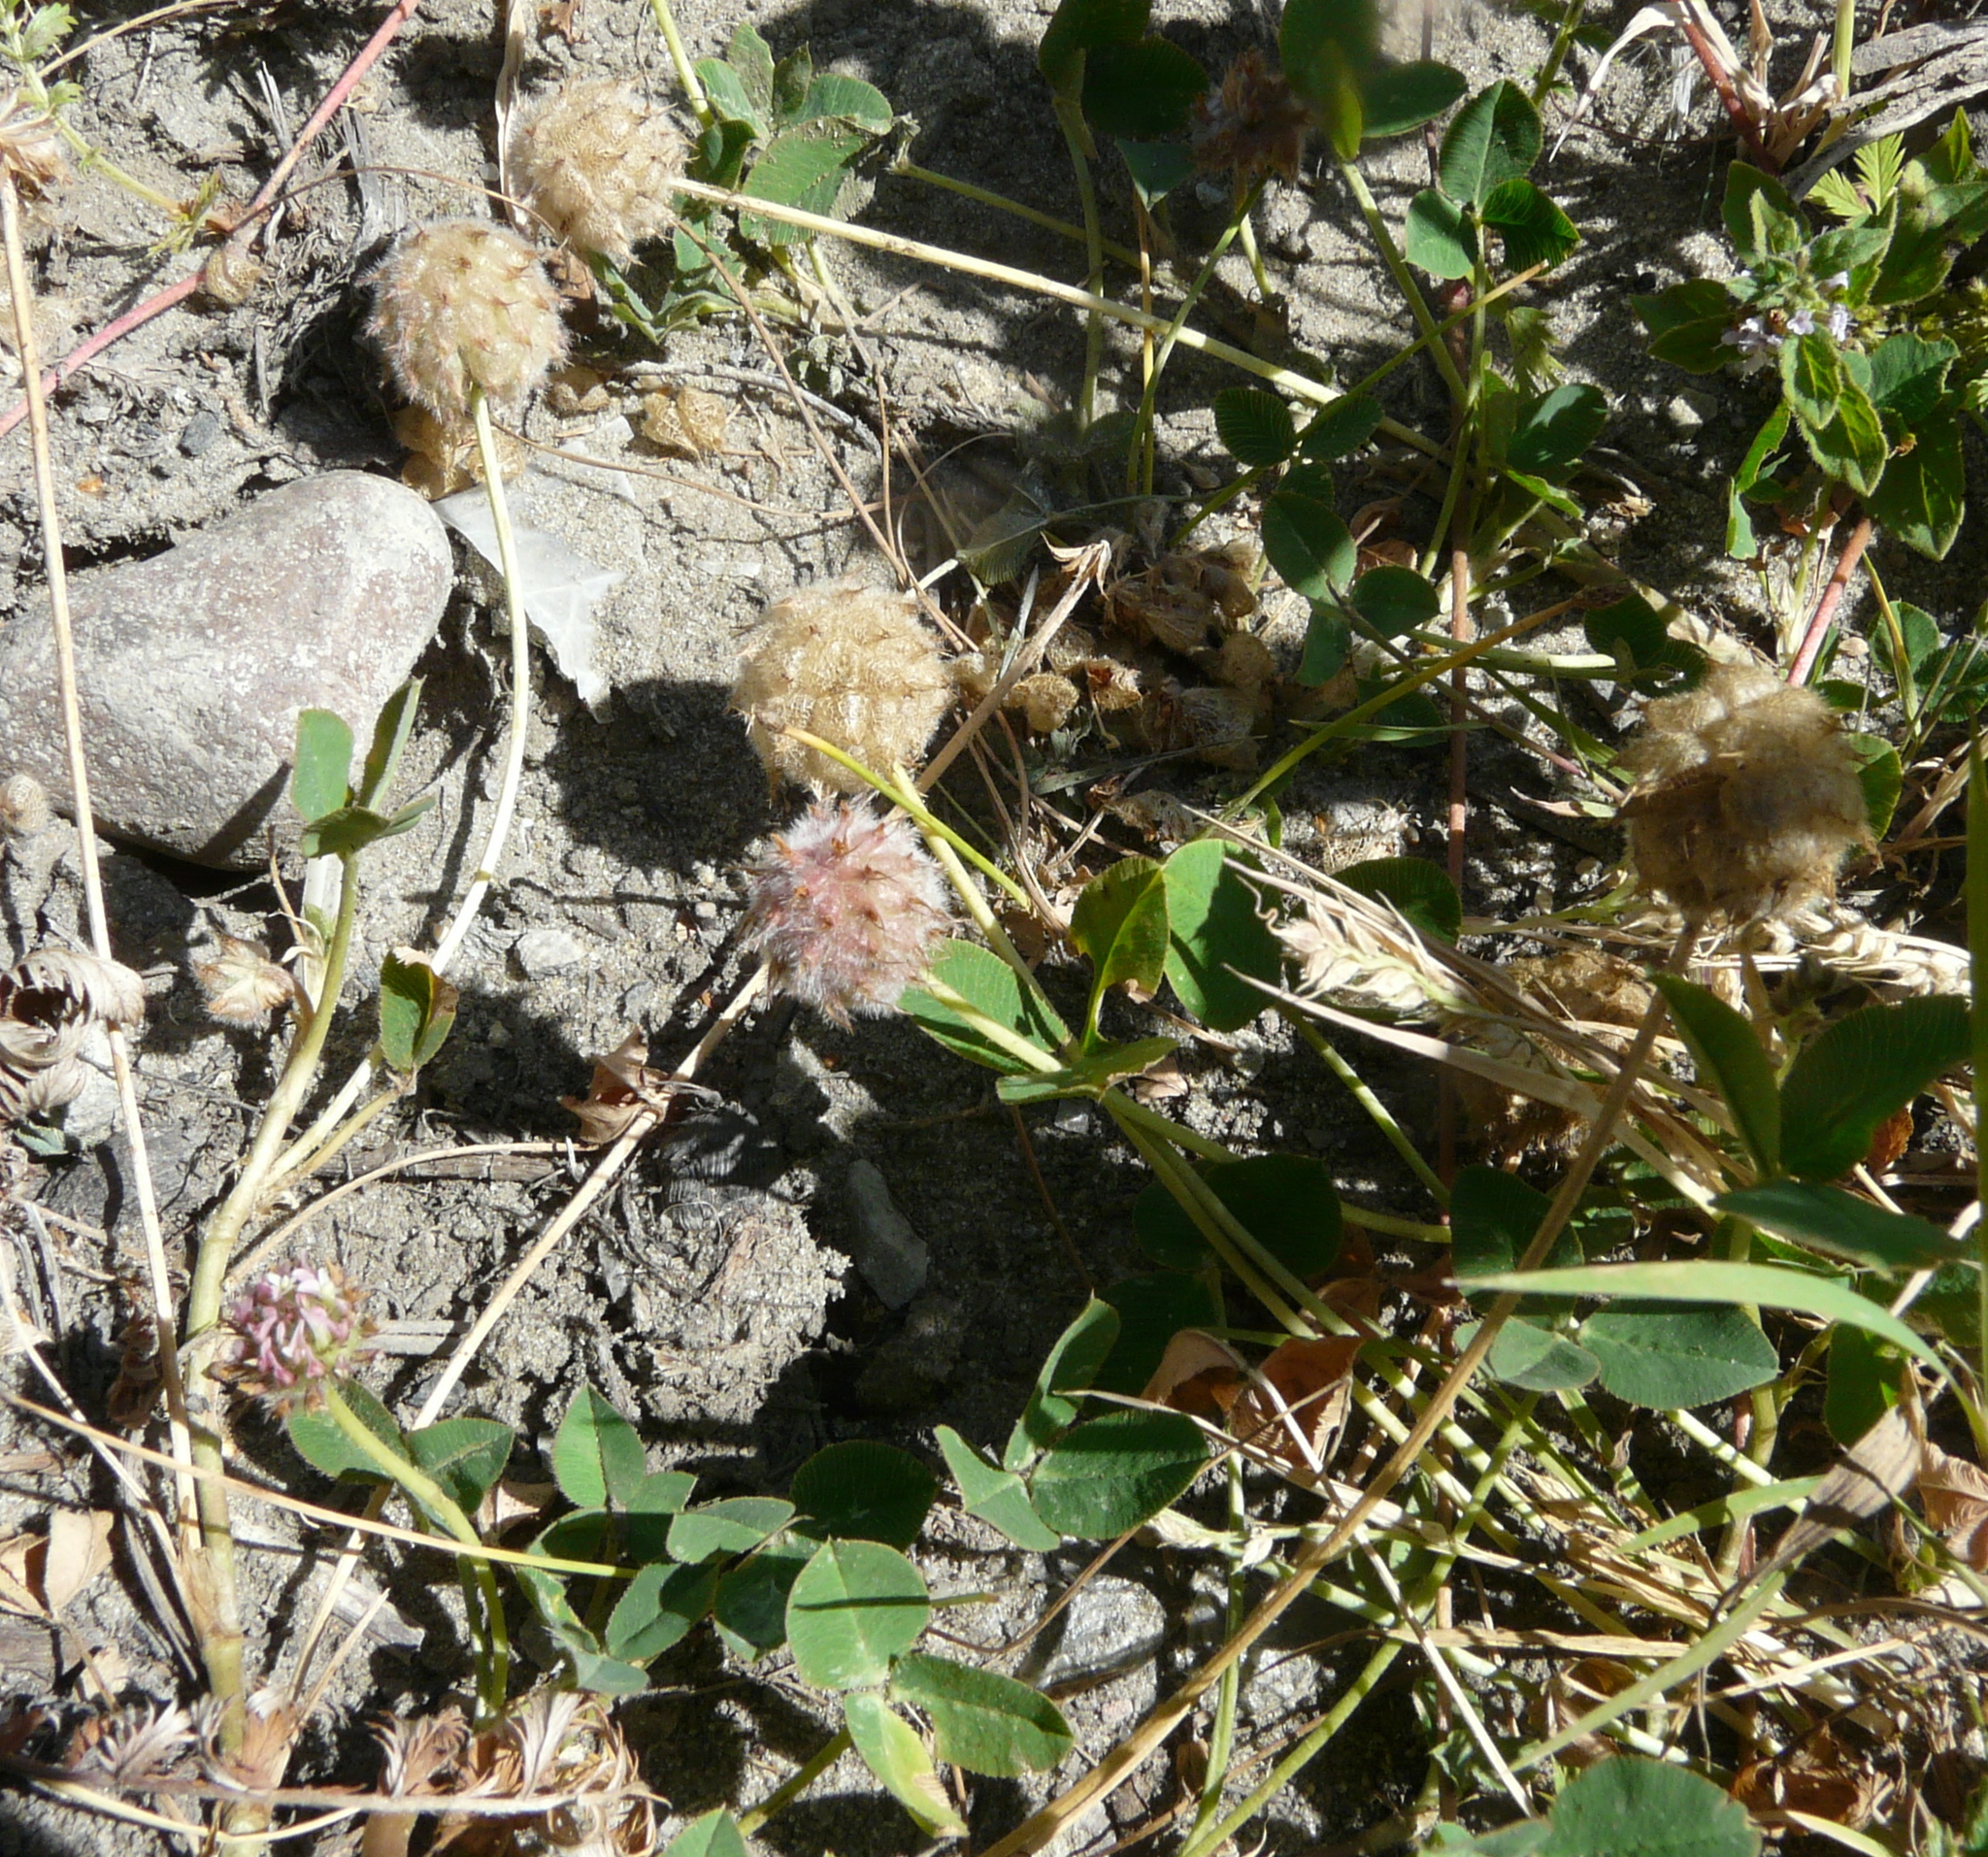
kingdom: Plantae
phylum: Tracheophyta
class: Magnoliopsida
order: Fabales
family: Fabaceae
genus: Trifolium
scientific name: Trifolium fragiferum
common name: Strawberry clover
